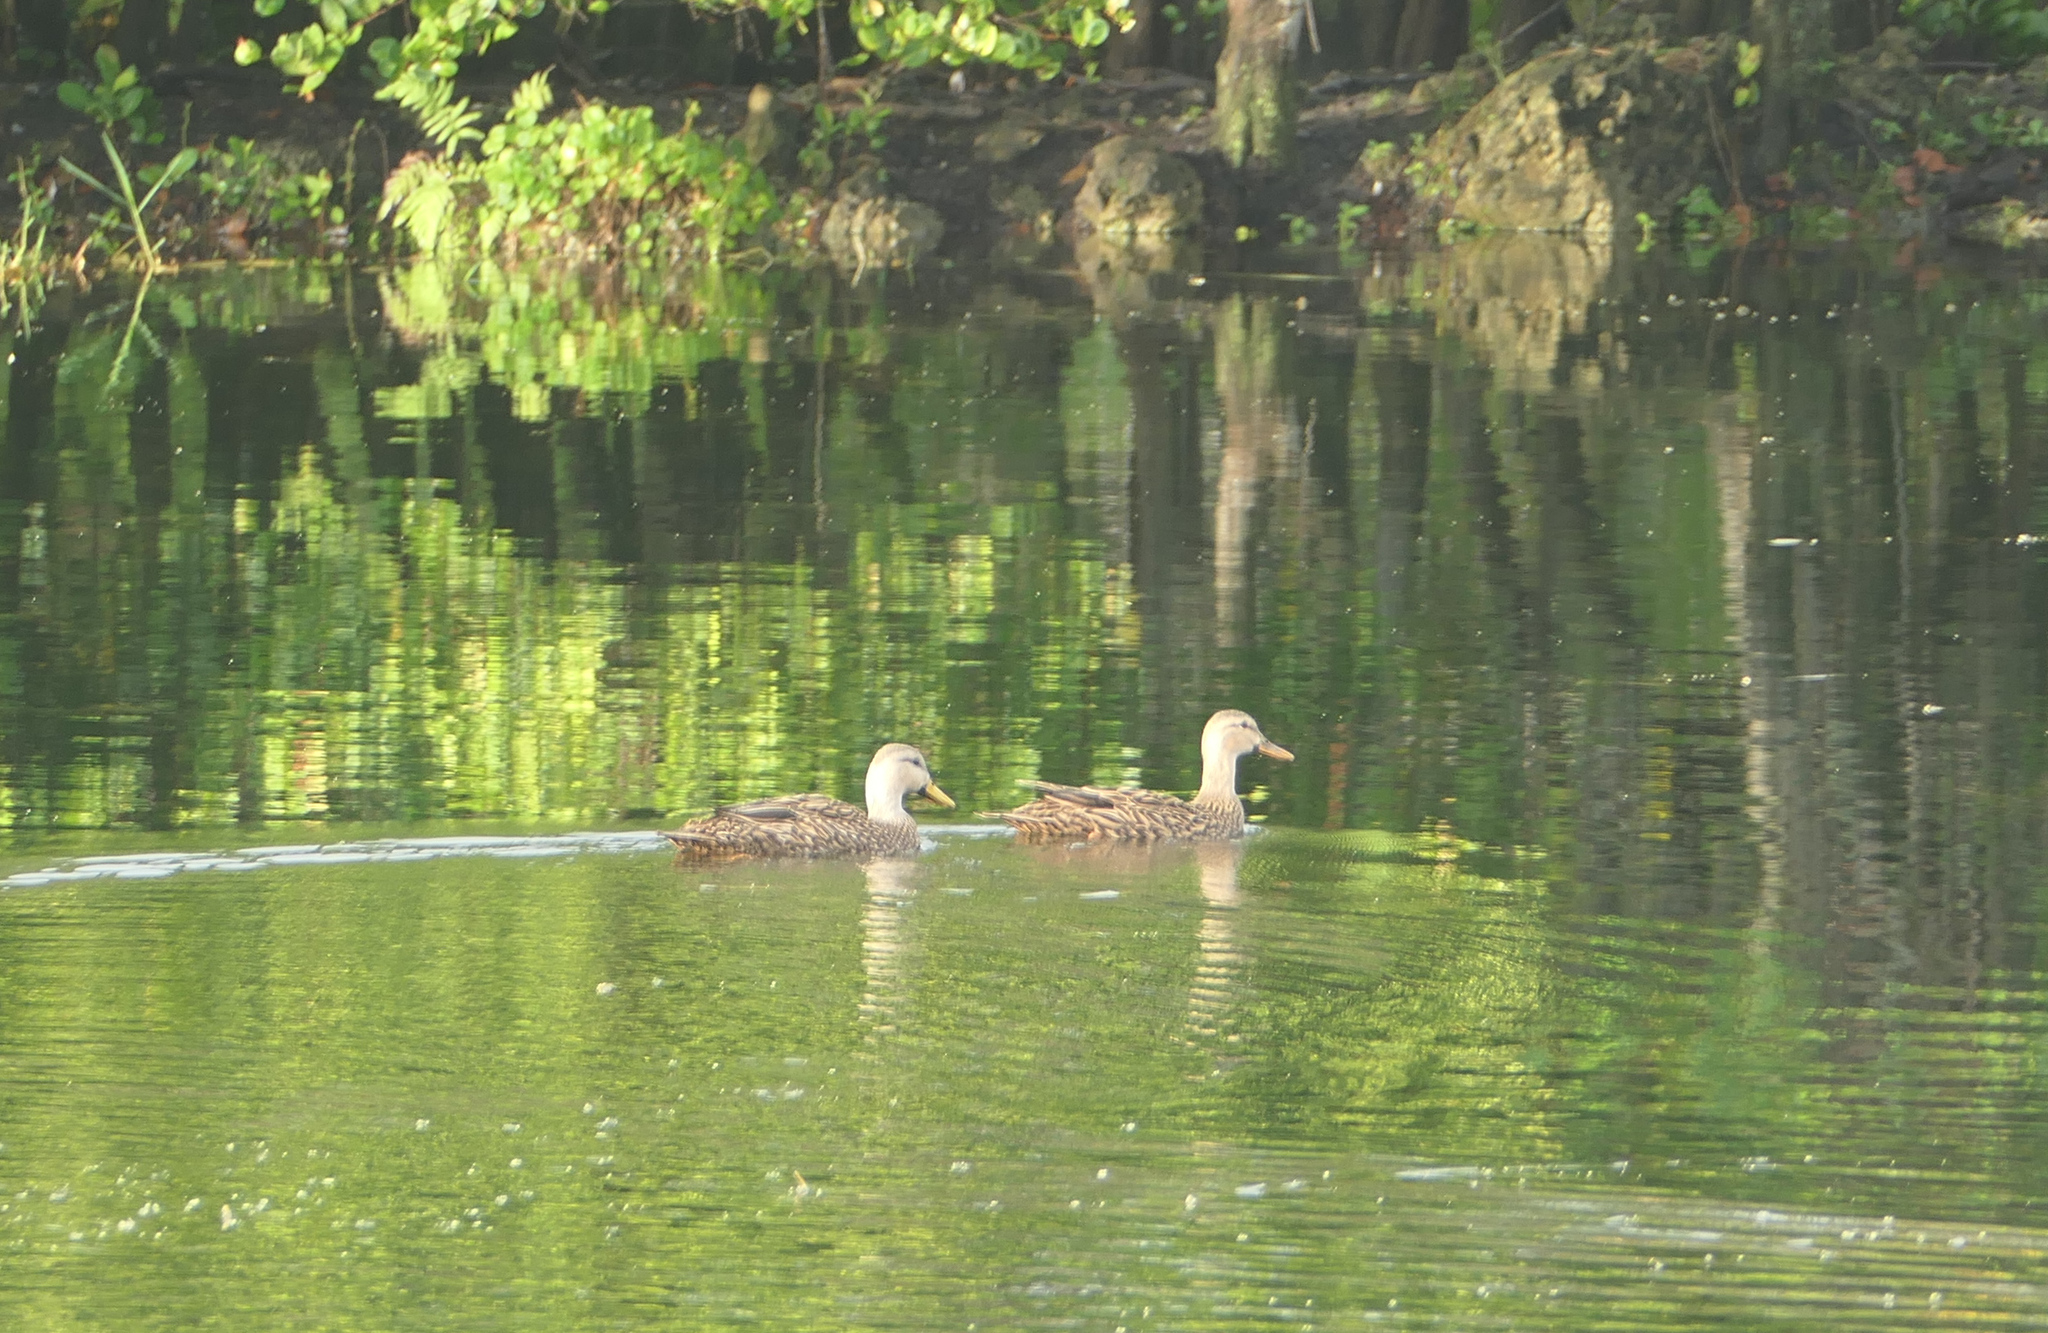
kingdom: Animalia
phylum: Chordata
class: Aves
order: Anseriformes
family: Anatidae
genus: Anas
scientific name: Anas fulvigula
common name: Mottled duck
